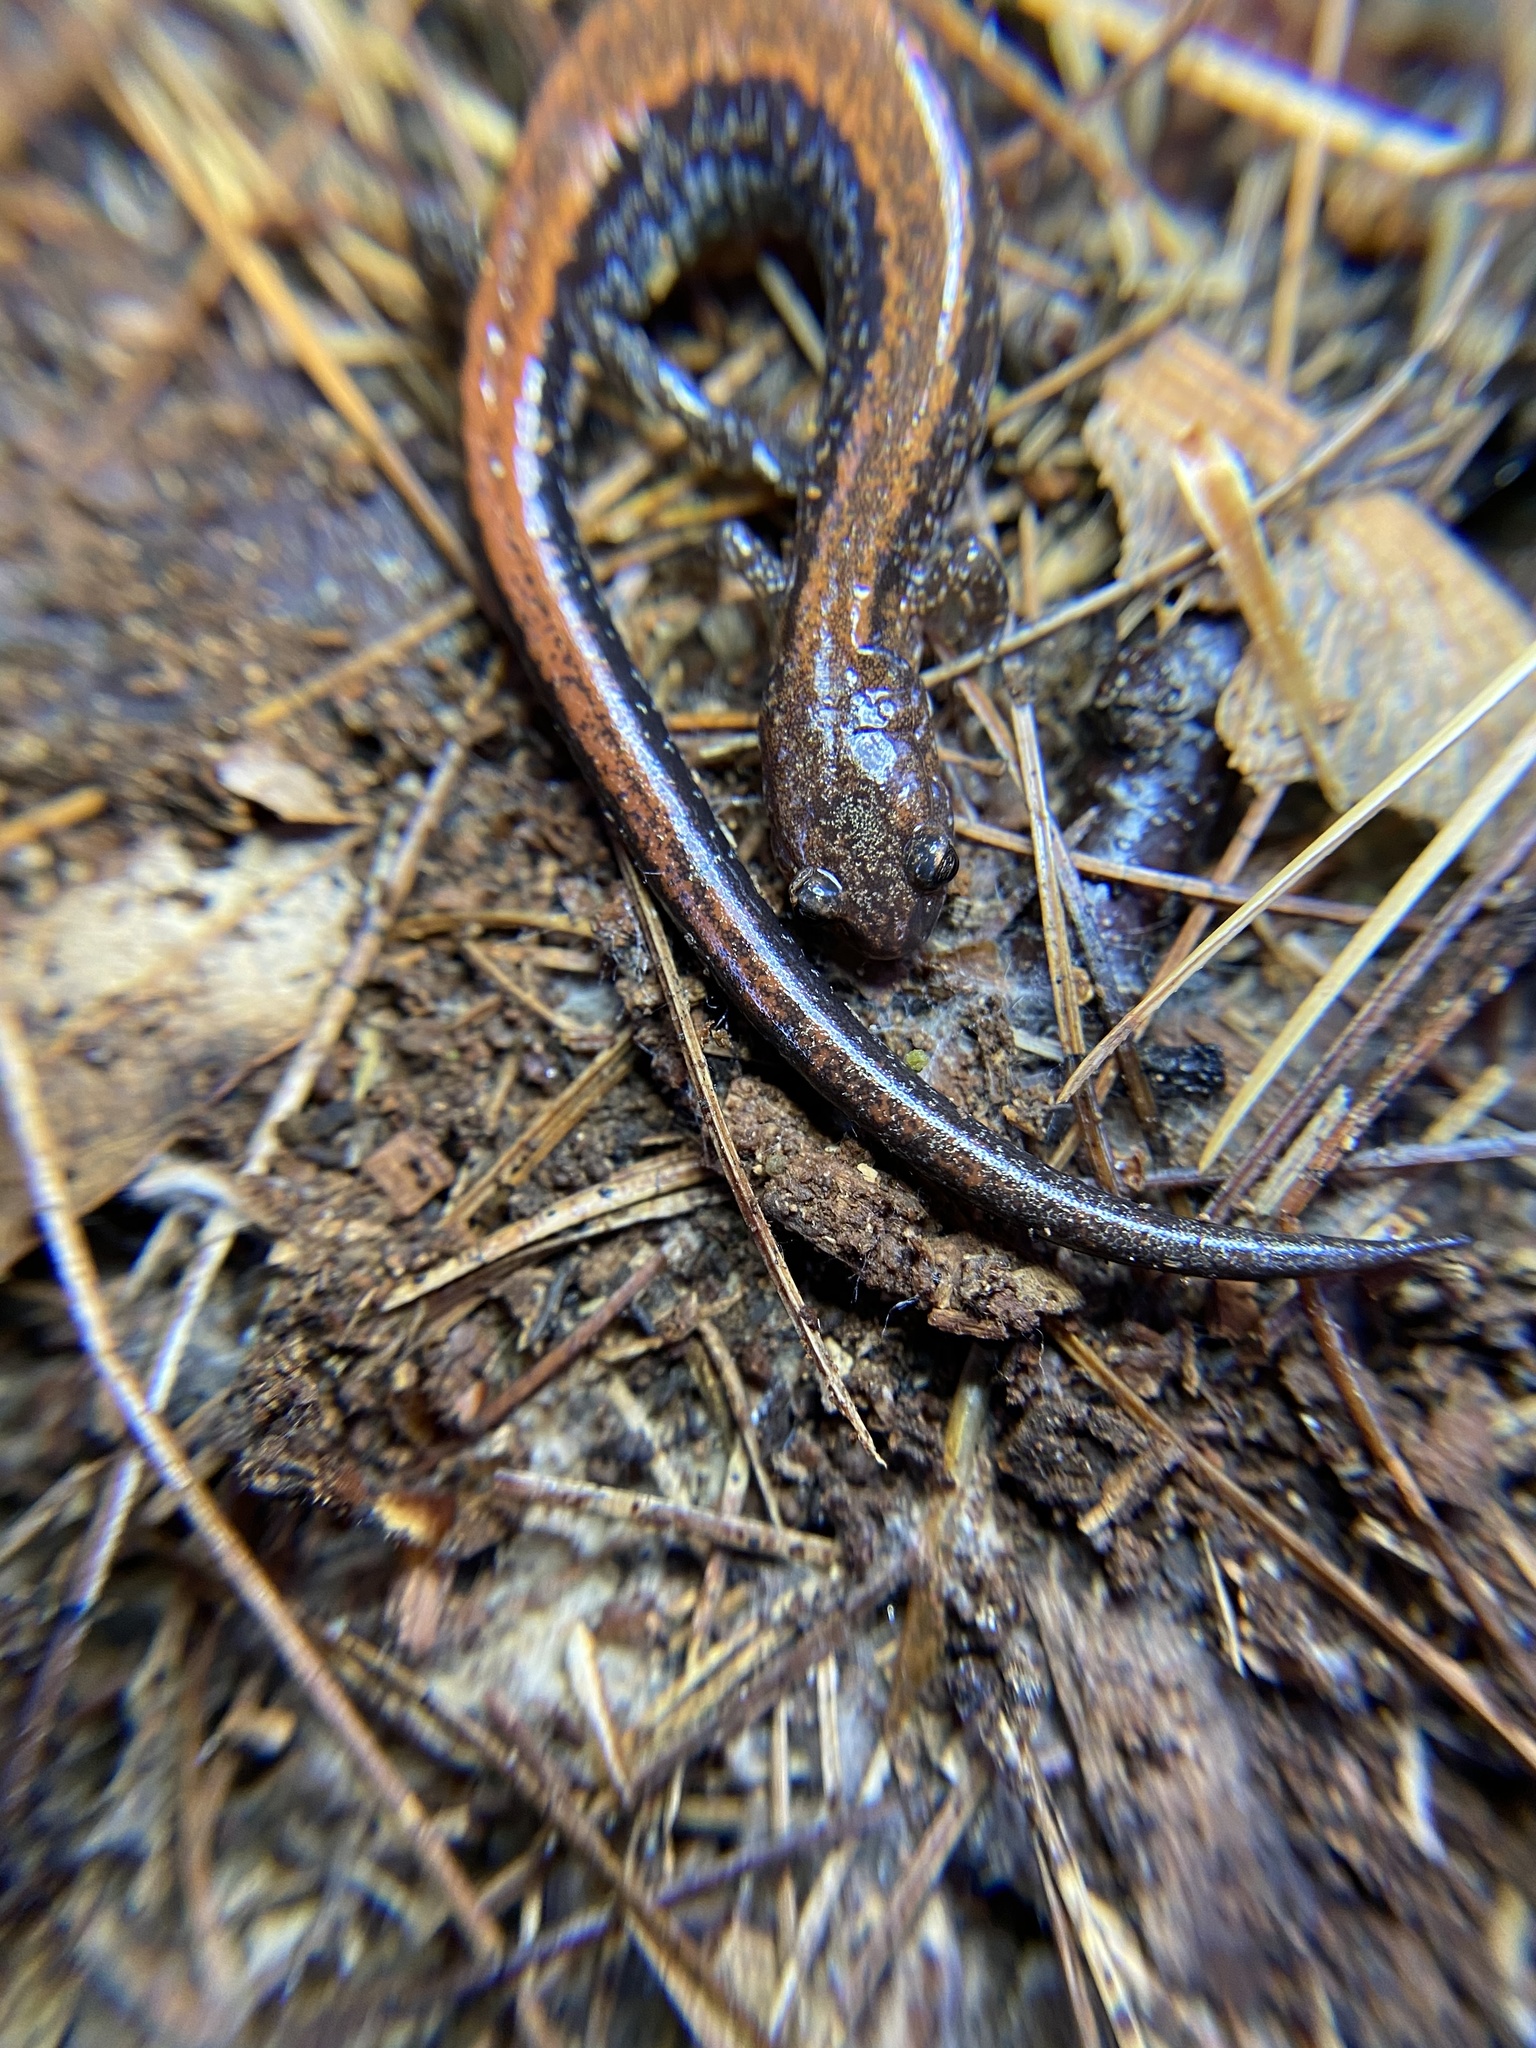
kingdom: Animalia
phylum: Chordata
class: Amphibia
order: Caudata
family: Plethodontidae
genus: Plethodon
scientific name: Plethodon cinereus
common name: Redback salamander
